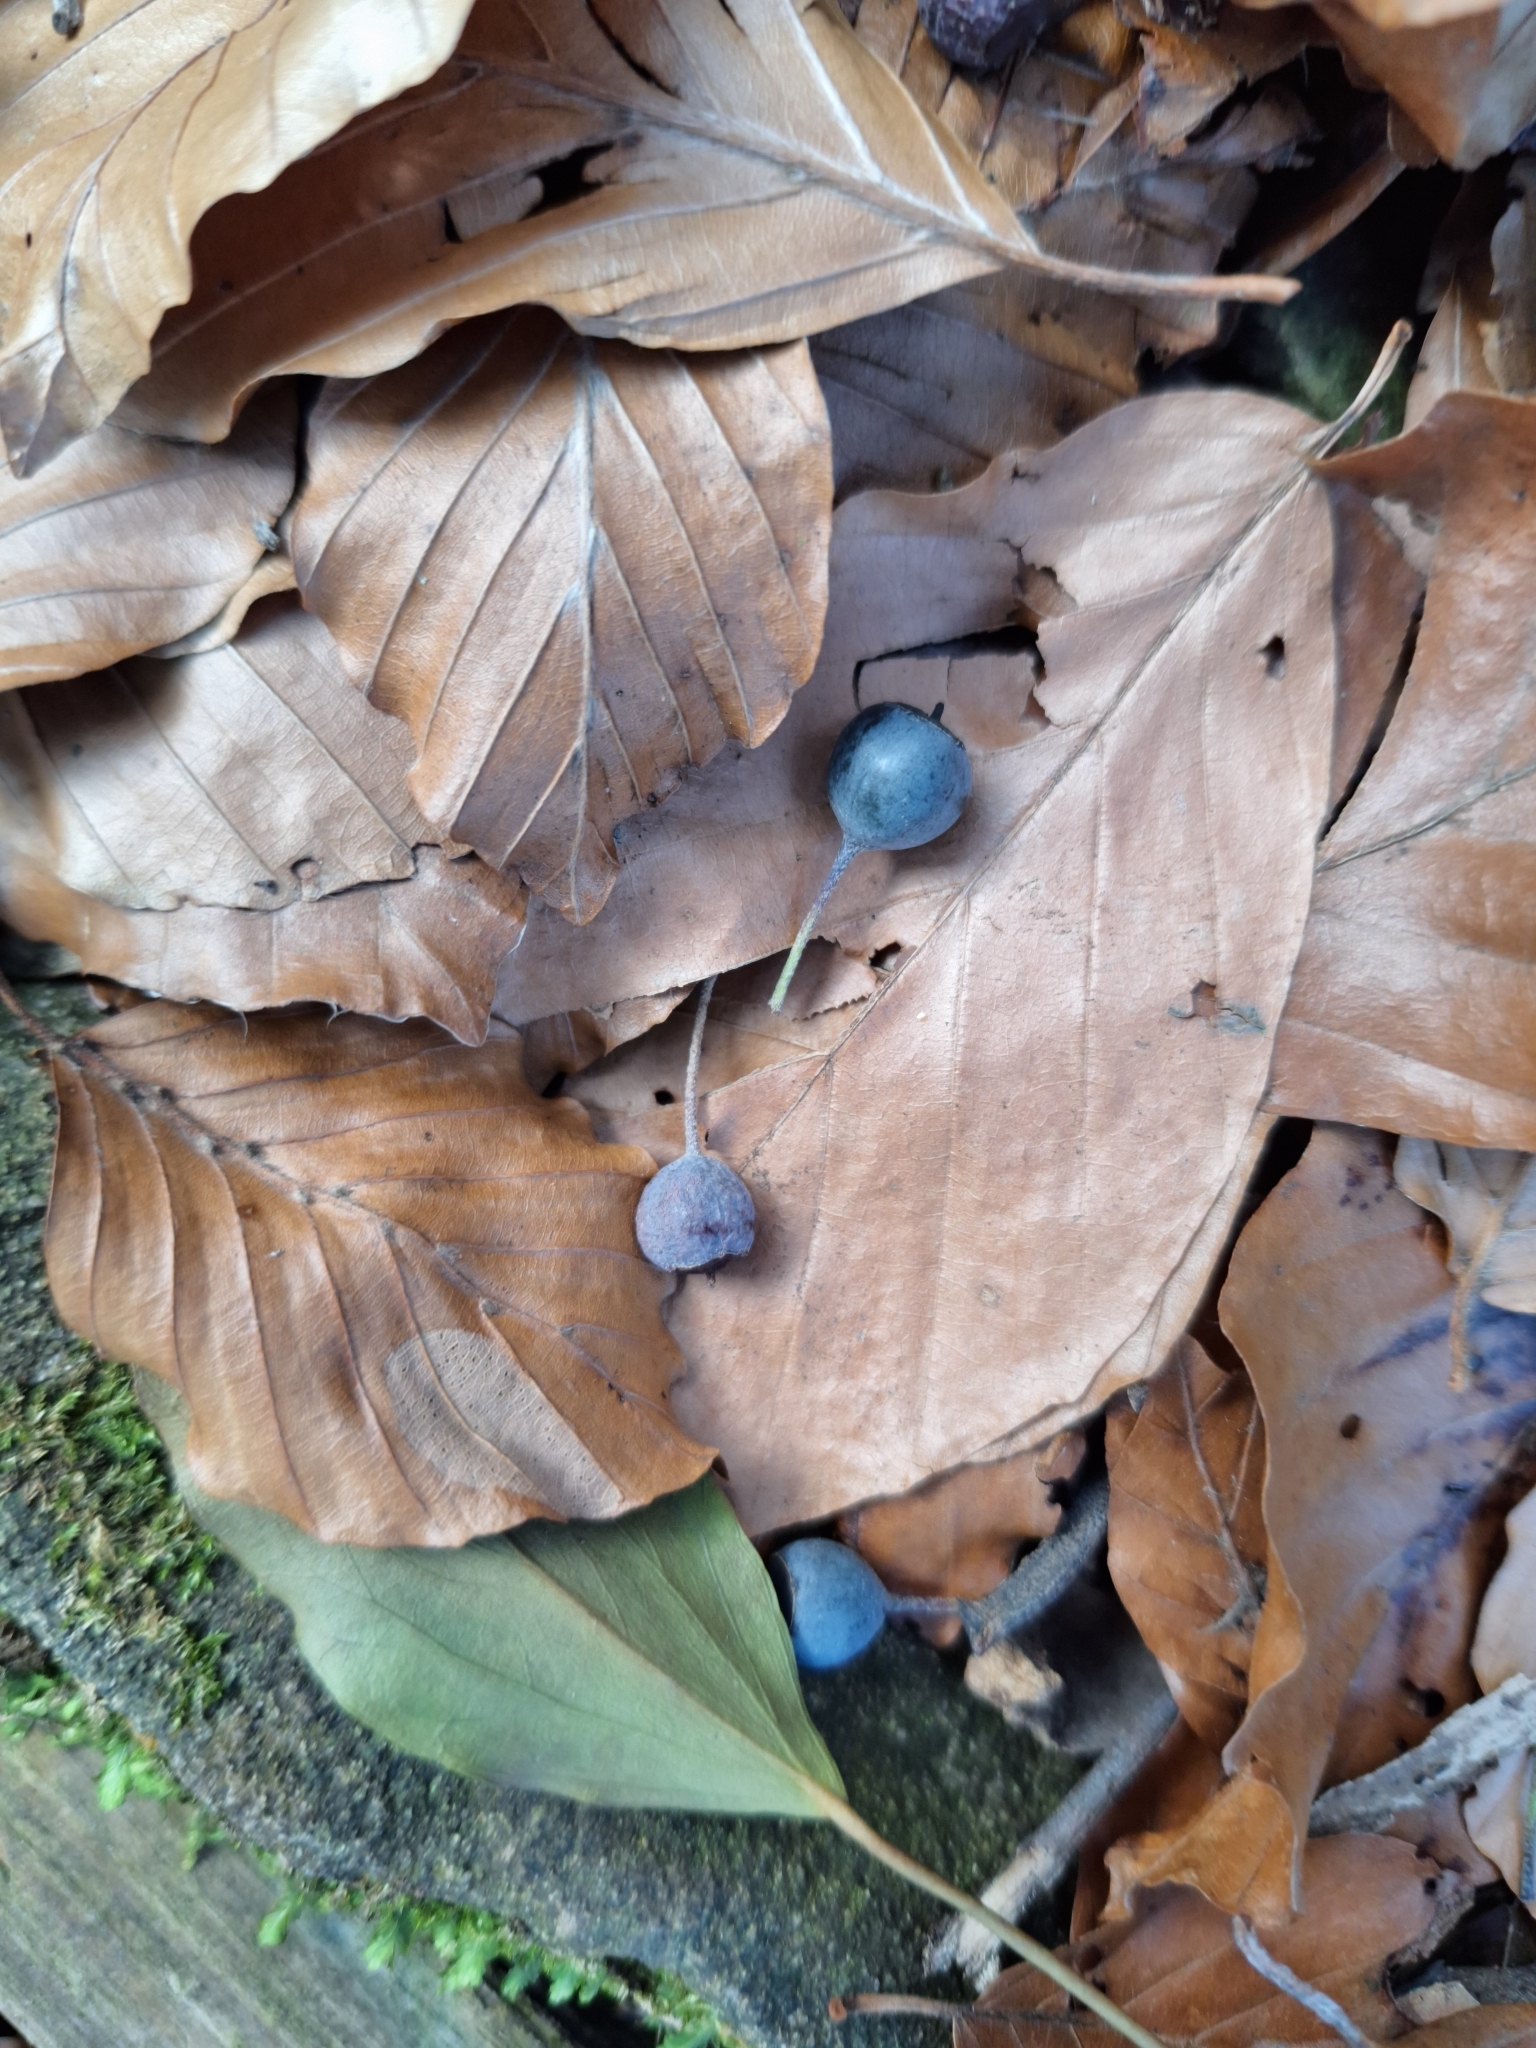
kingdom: Plantae
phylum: Tracheophyta
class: Magnoliopsida
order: Apiales
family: Araliaceae
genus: Hedera
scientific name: Hedera helix
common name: Ivy
